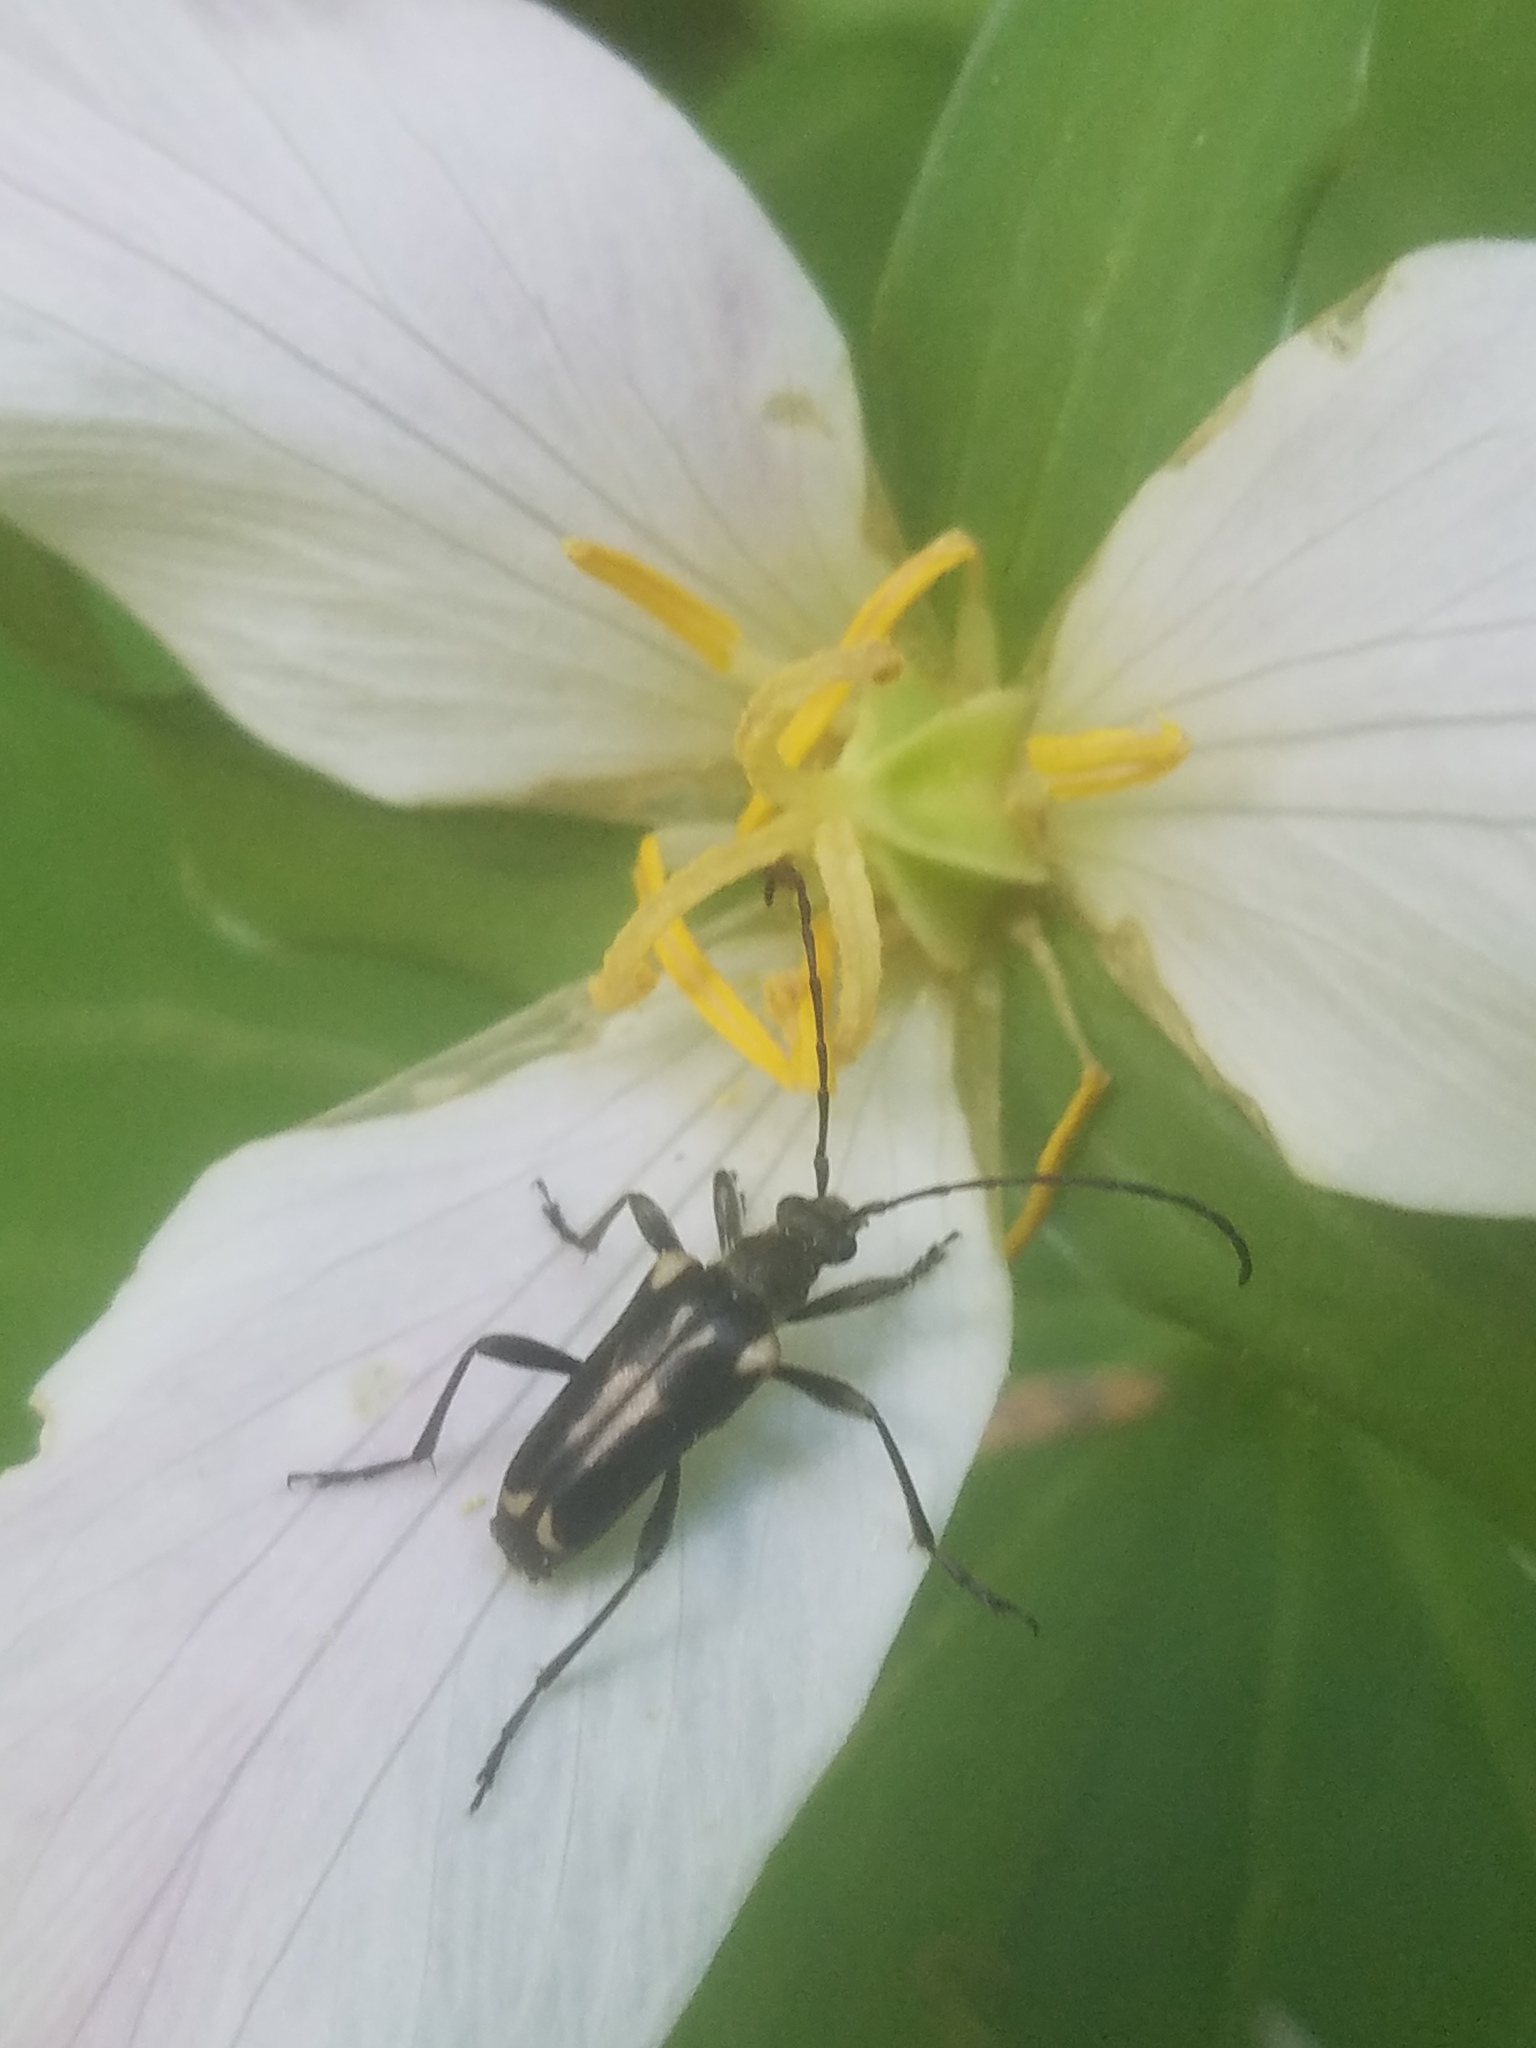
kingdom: Animalia
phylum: Arthropoda
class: Insecta
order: Coleoptera
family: Cerambycidae
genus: Evodinus
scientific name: Evodinus monticola
